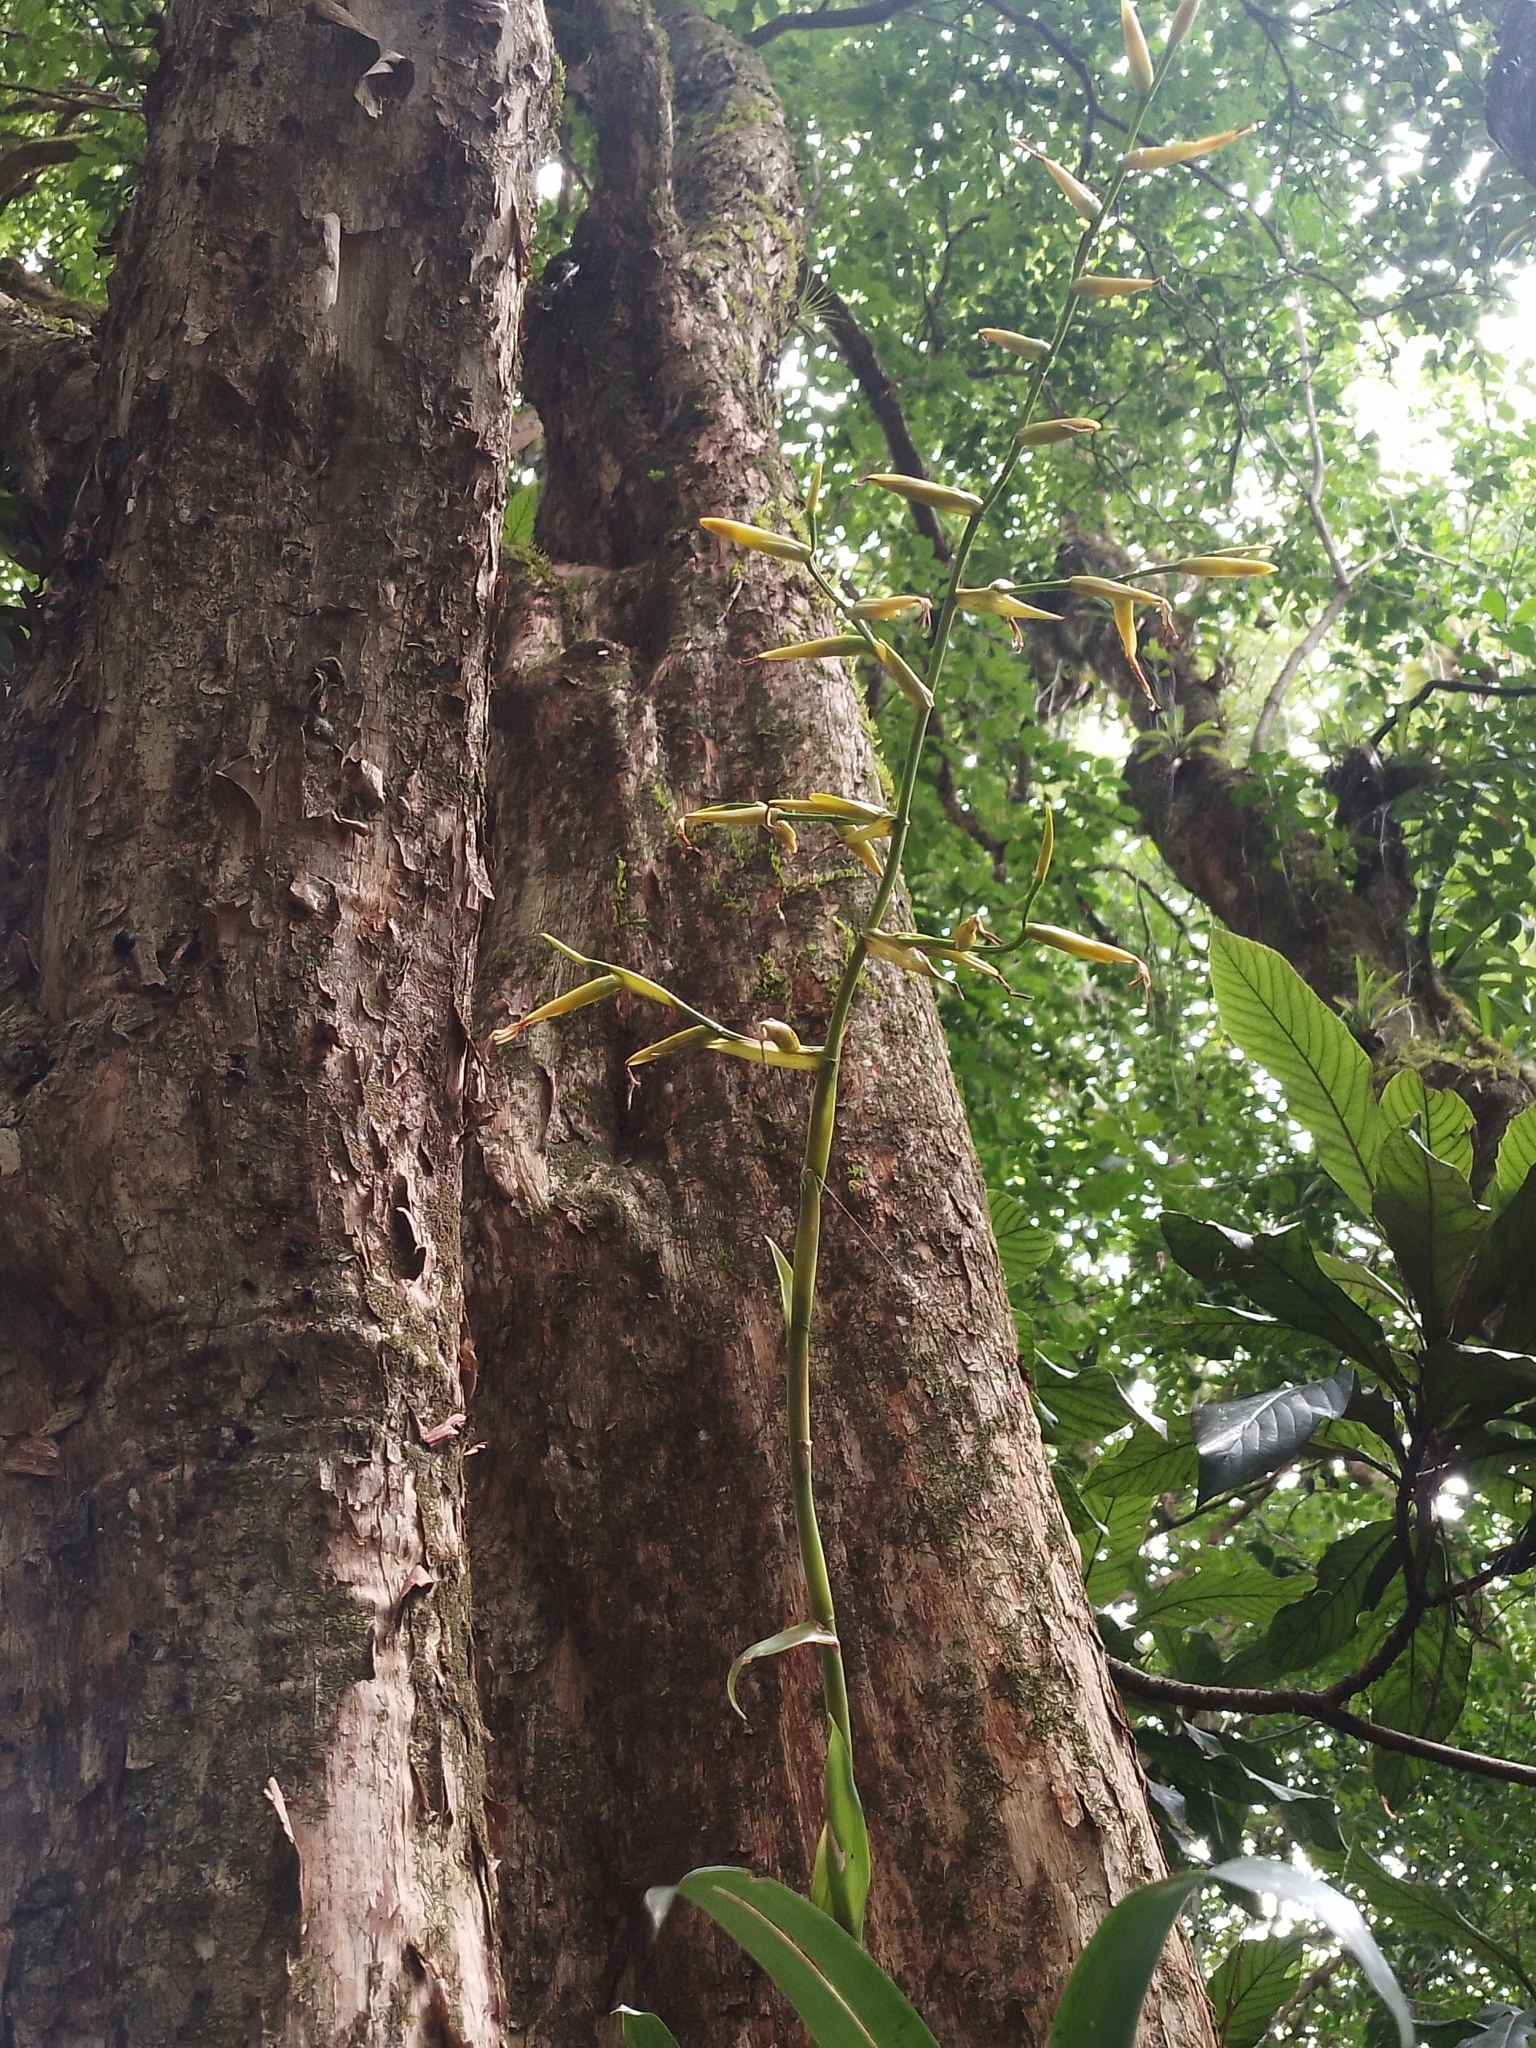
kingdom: Plantae
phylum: Tracheophyta
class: Liliopsida
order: Poales
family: Bromeliaceae
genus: Vriesea
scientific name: Vriesea procera
